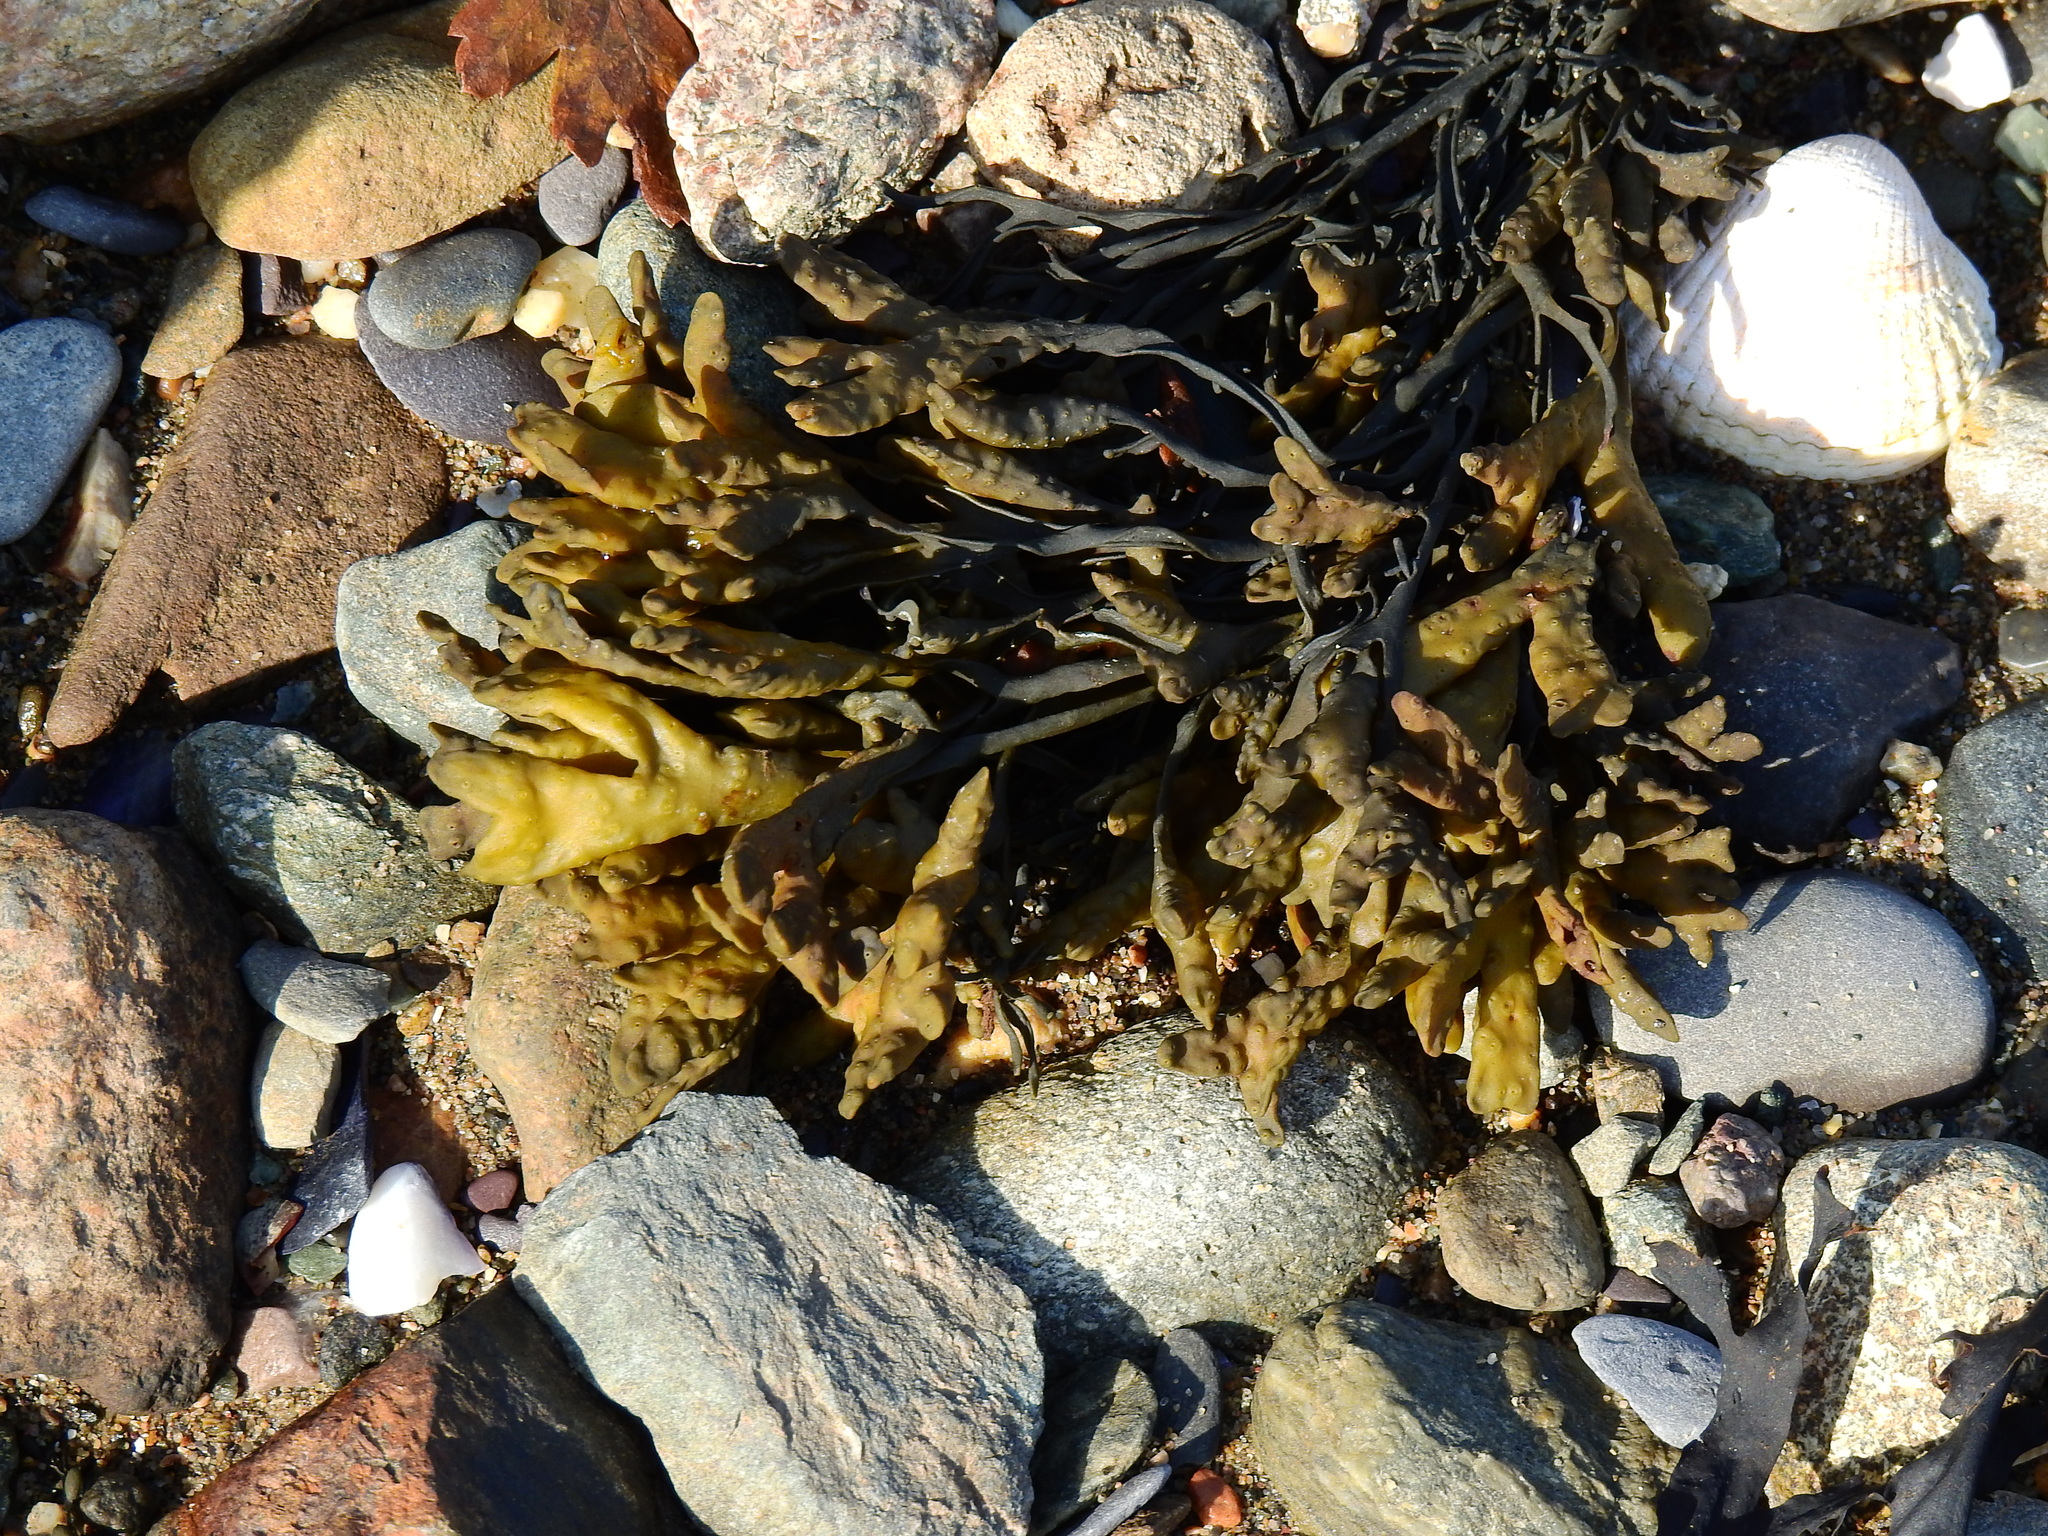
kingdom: Chromista
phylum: Ochrophyta
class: Phaeophyceae
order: Fucales
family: Fucaceae
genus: Pelvetia
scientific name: Pelvetia canaliculata
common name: Channelled wrack
